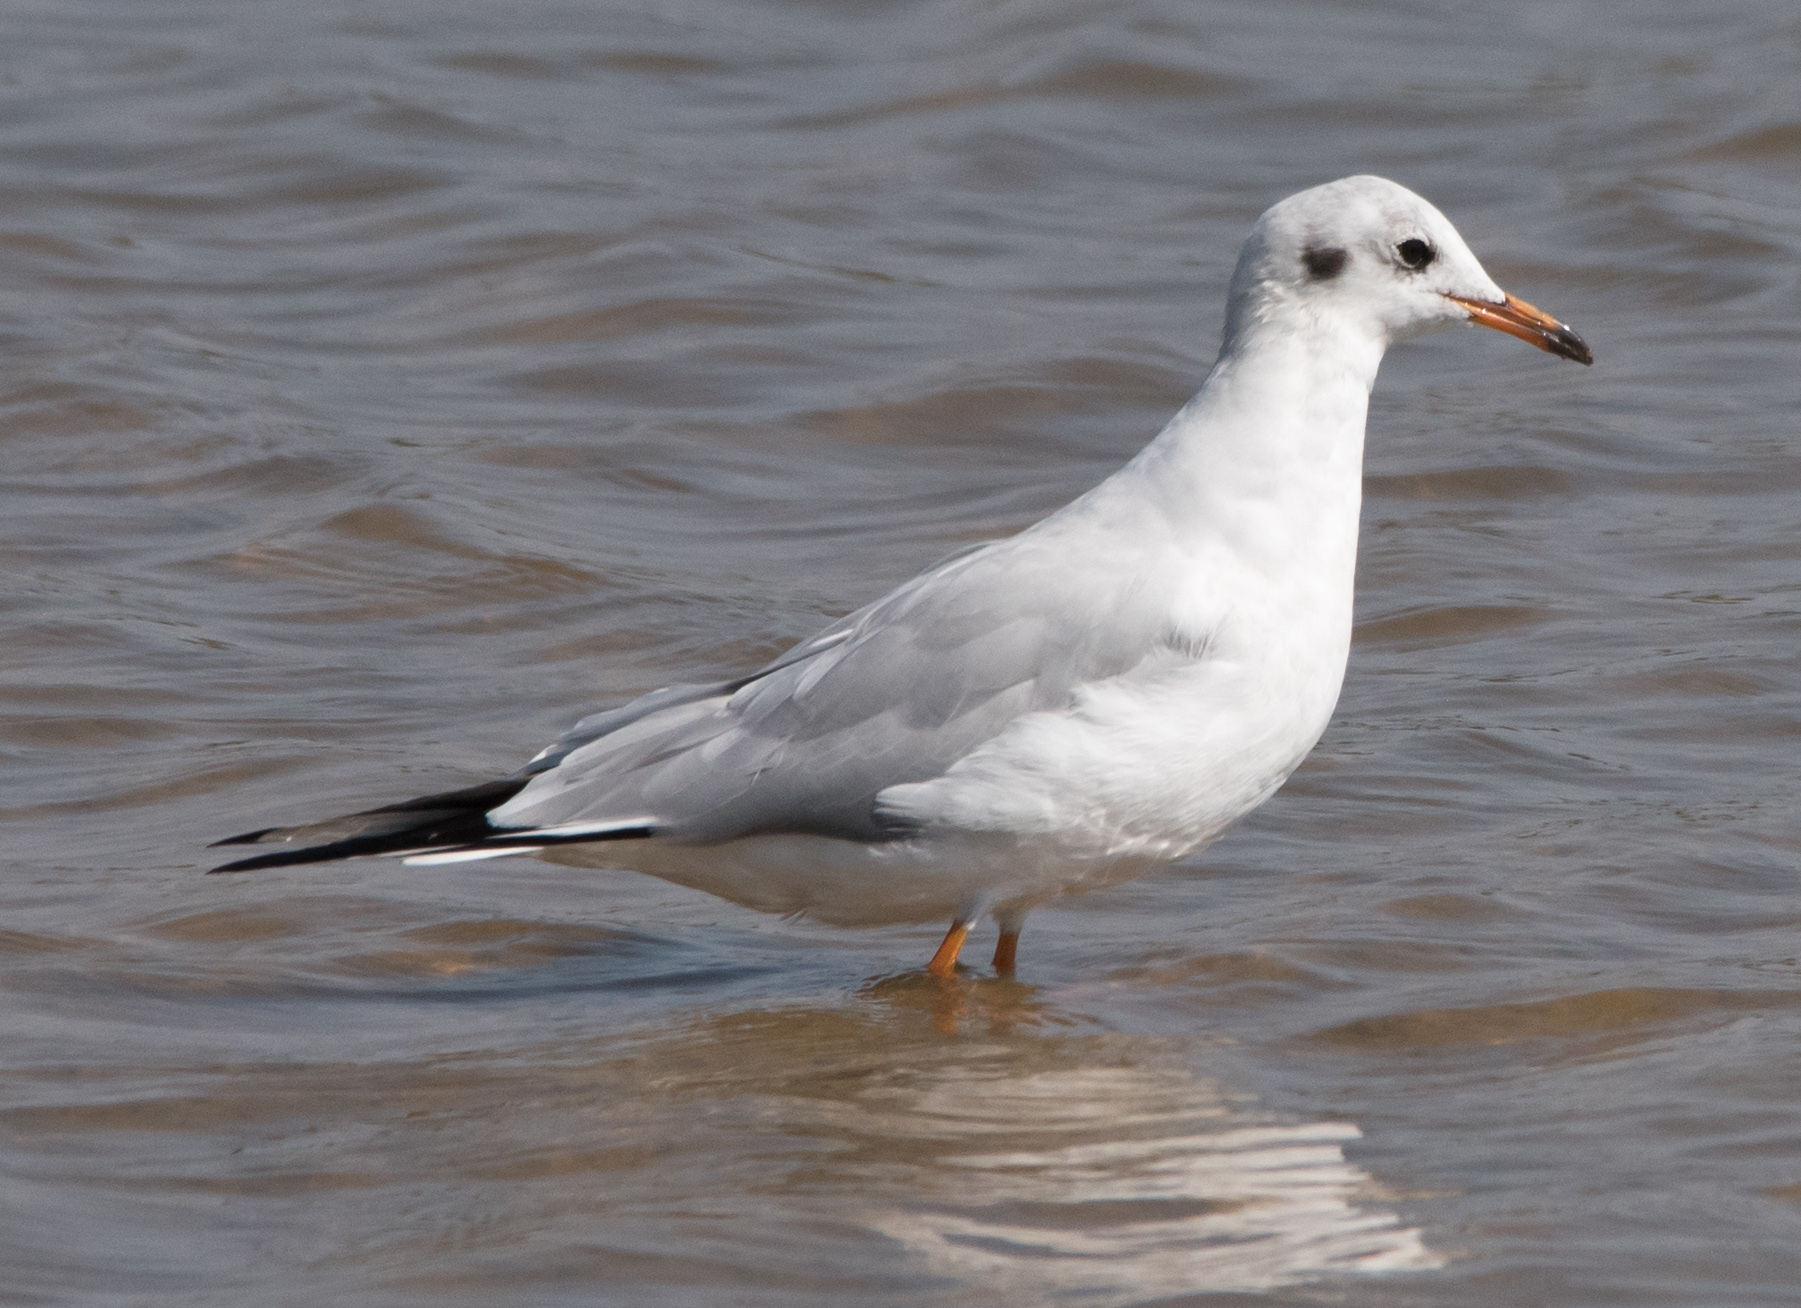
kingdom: Animalia
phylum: Chordata
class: Aves
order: Charadriiformes
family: Laridae
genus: Chroicocephalus
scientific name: Chroicocephalus ridibundus
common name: Black-headed gull
